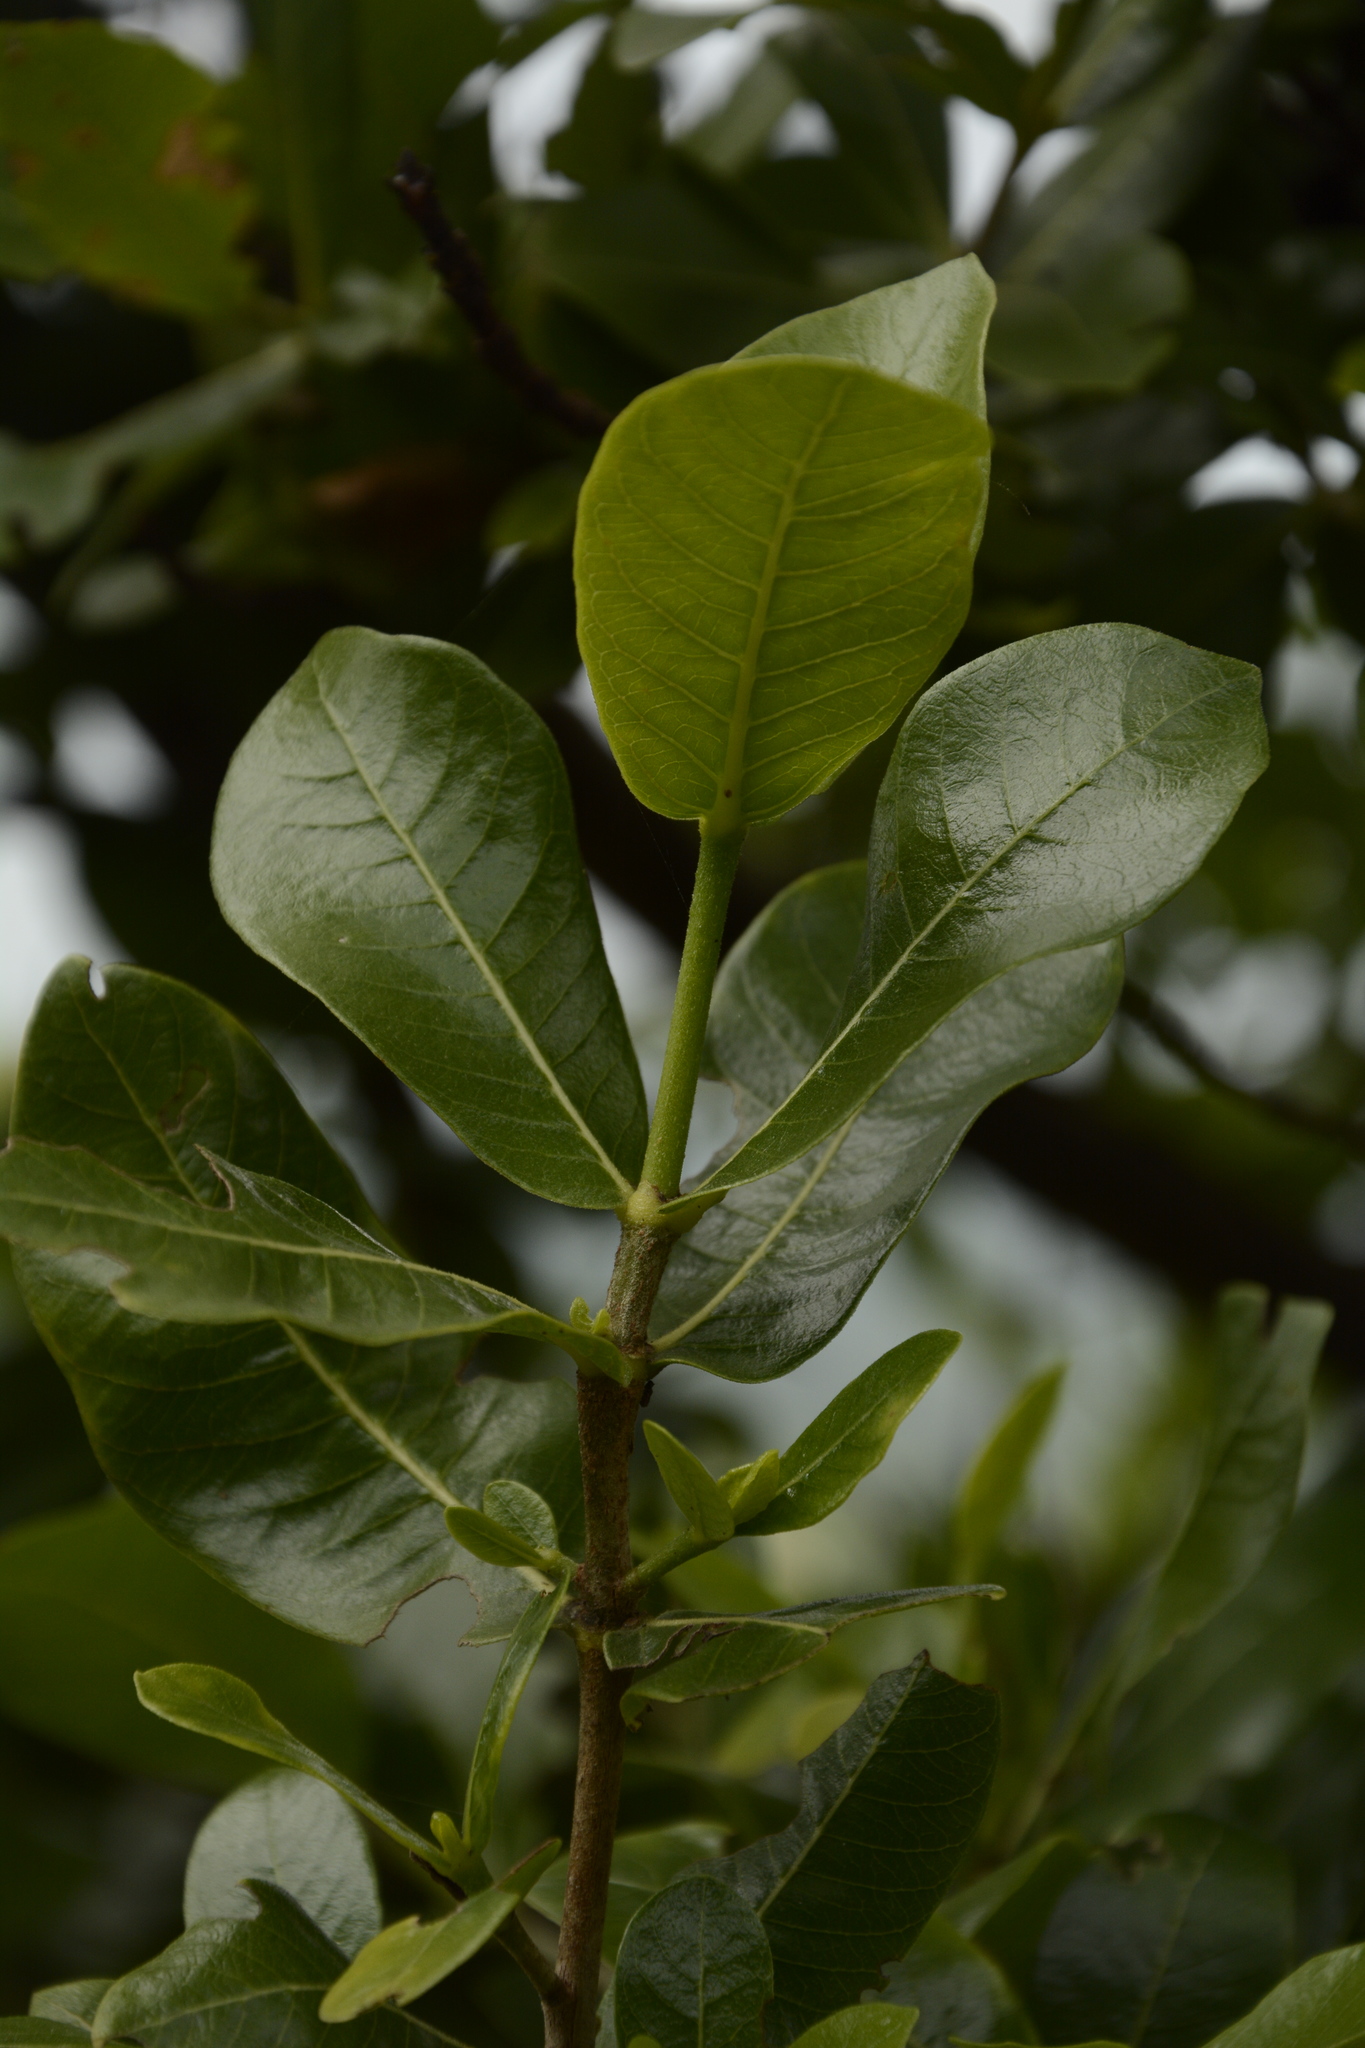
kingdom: Plantae
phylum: Tracheophyta
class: Magnoliopsida
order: Gentianales
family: Rubiaceae
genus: Gardenia
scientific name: Gardenia gummifera
